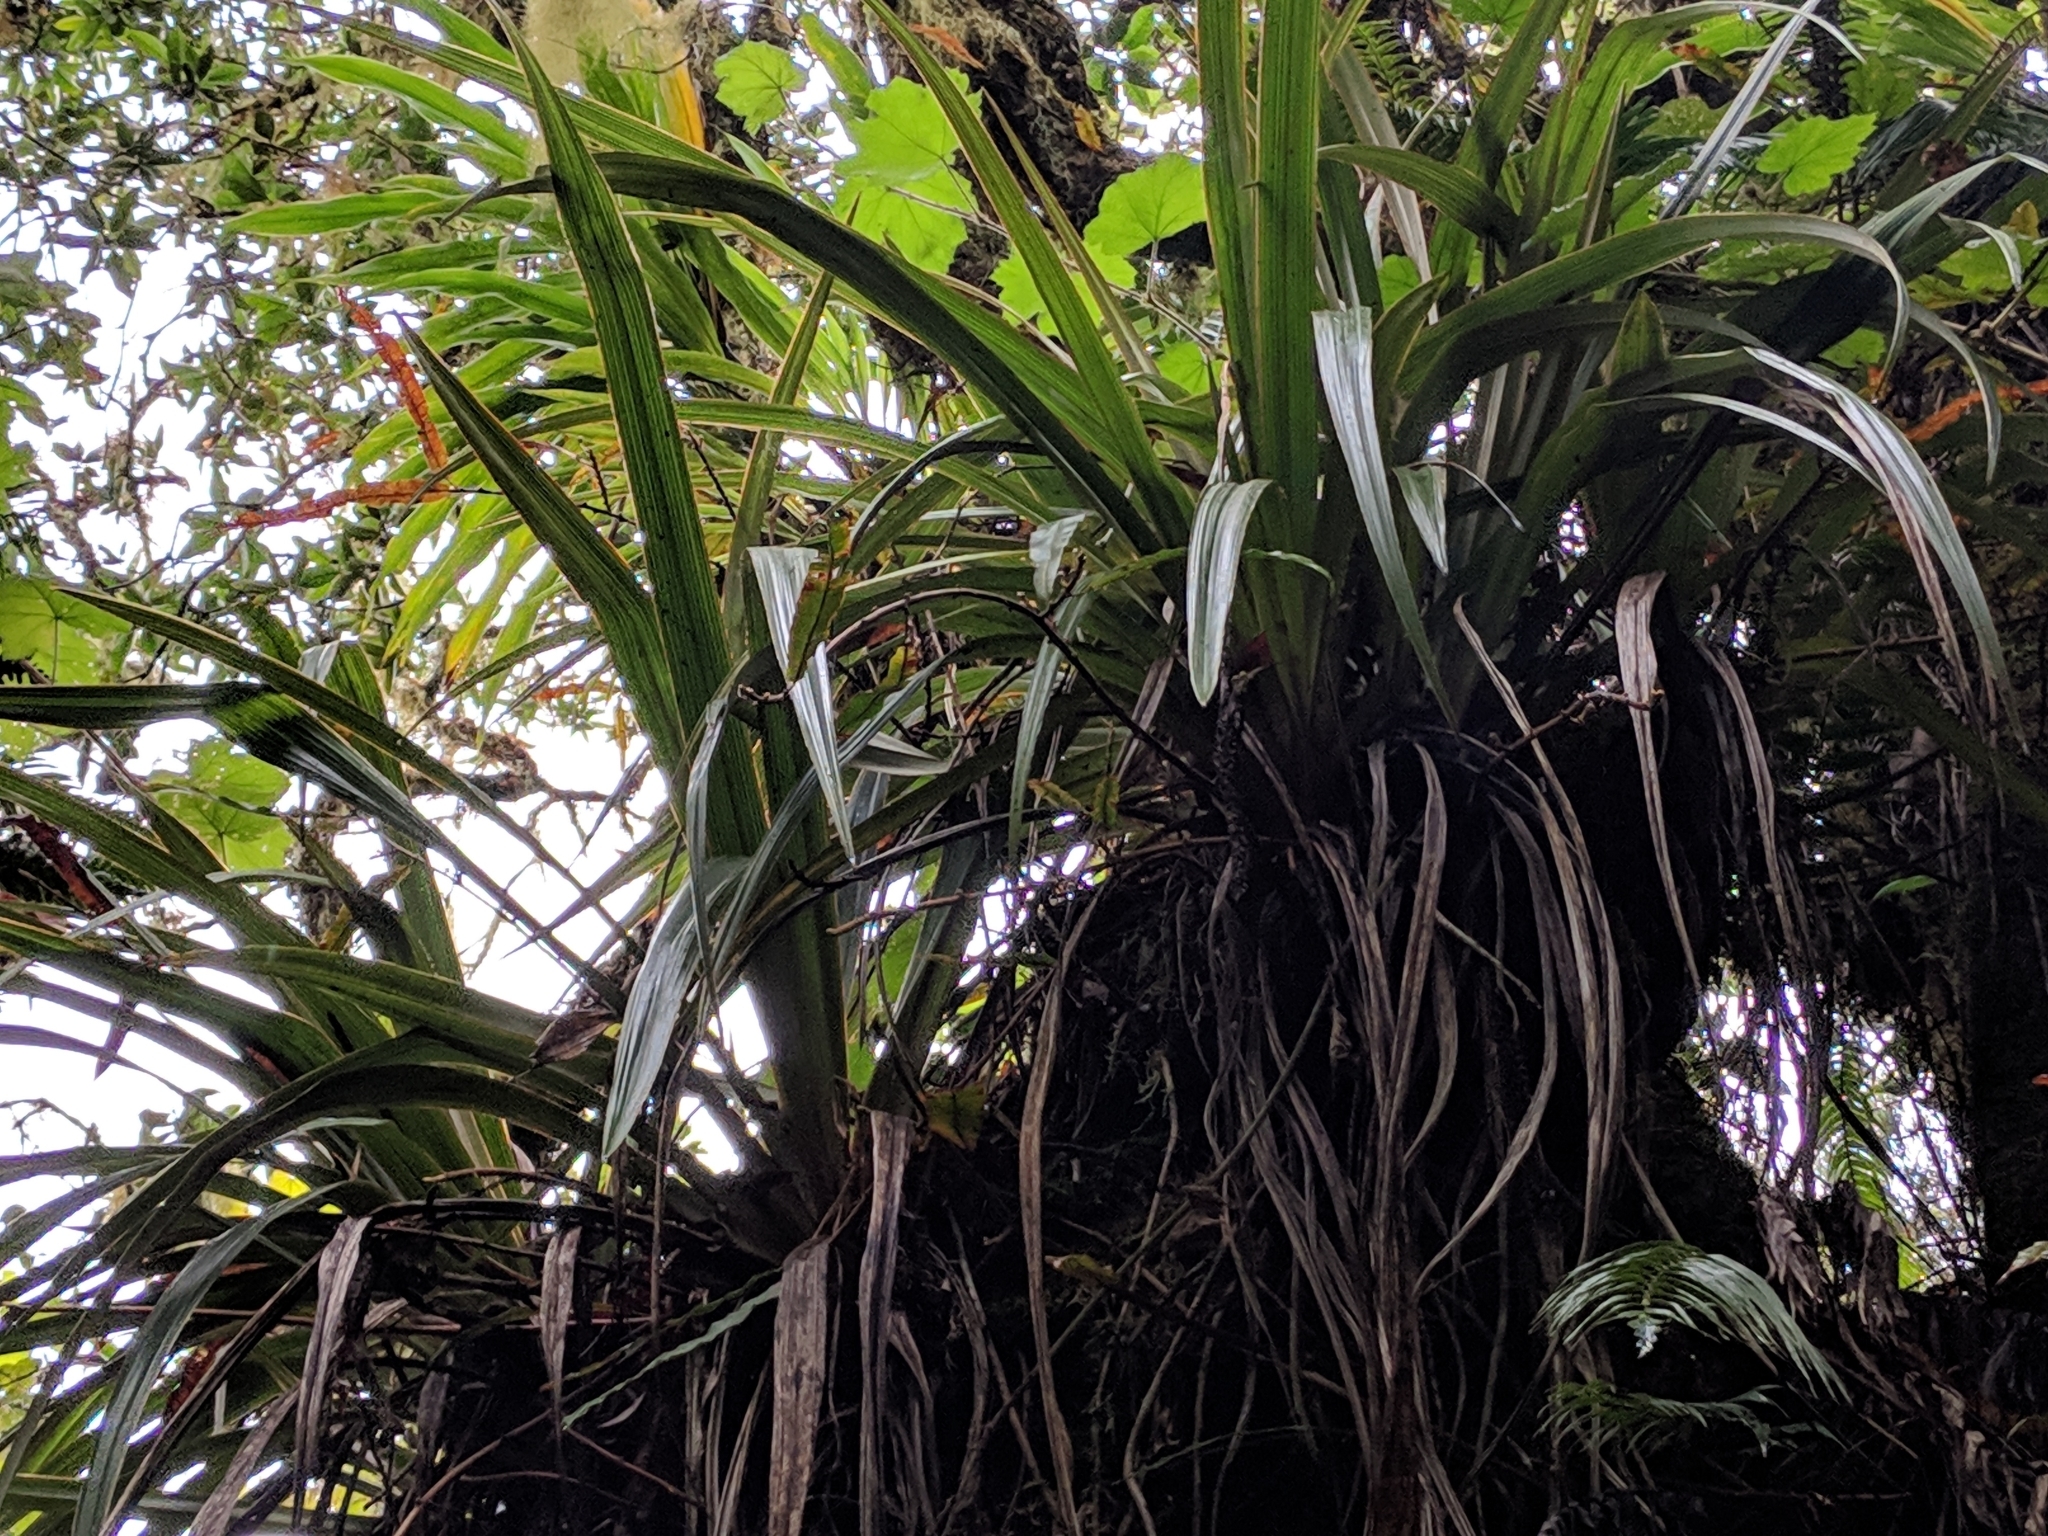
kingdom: Plantae
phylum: Tracheophyta
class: Liliopsida
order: Asparagales
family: Asteliaceae
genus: Astelia
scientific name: Astelia hemichrysa
